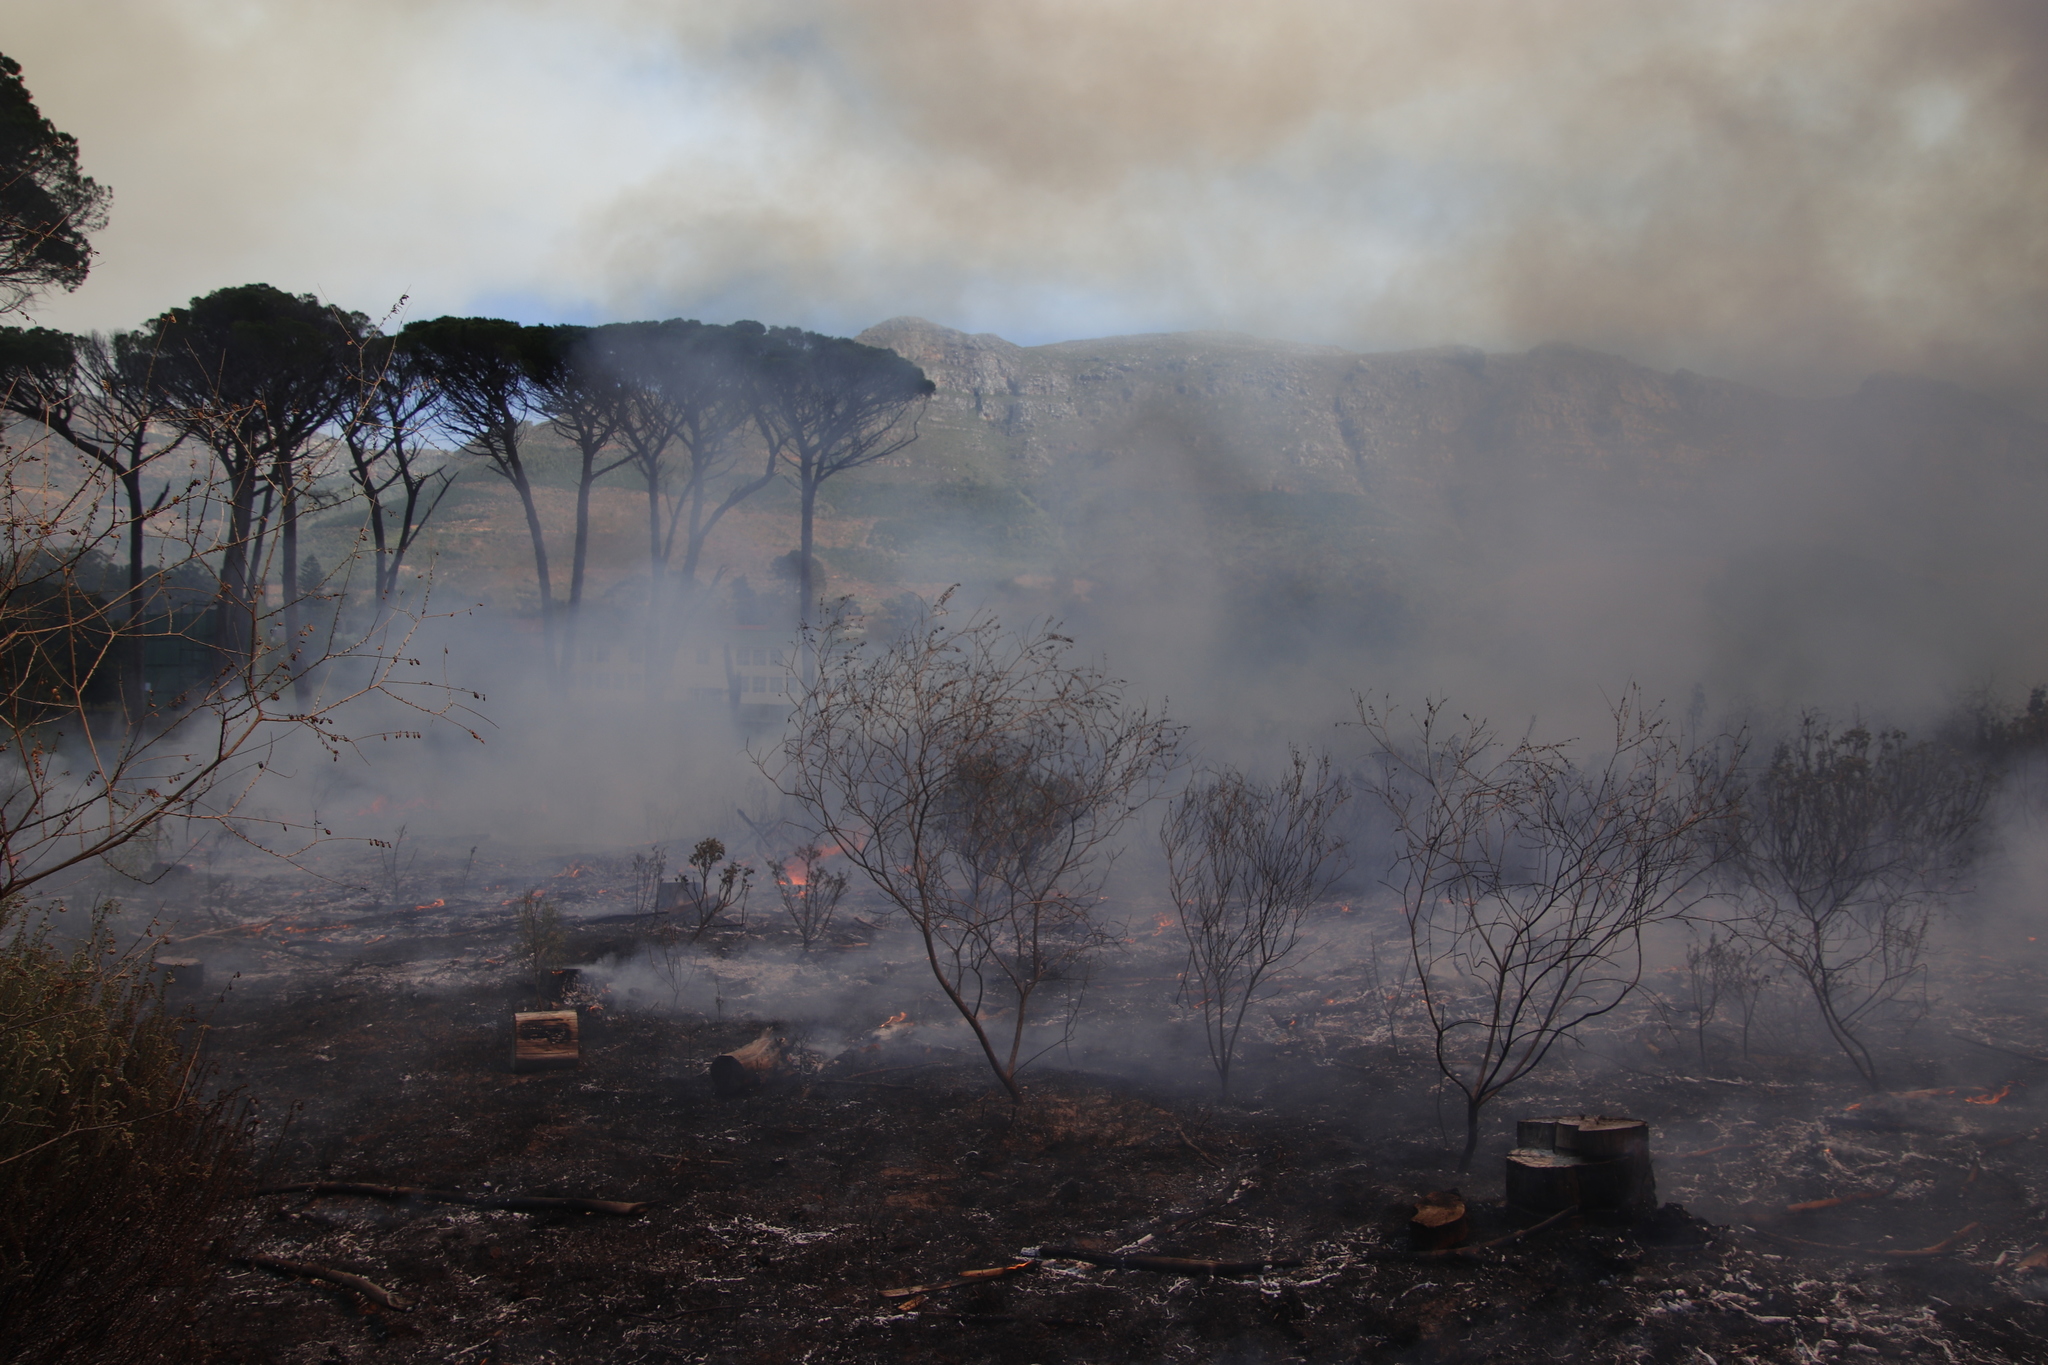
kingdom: Plantae
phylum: Tracheophyta
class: Magnoliopsida
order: Fabales
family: Fabaceae
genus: Wiborgia
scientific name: Wiborgia obcordata
